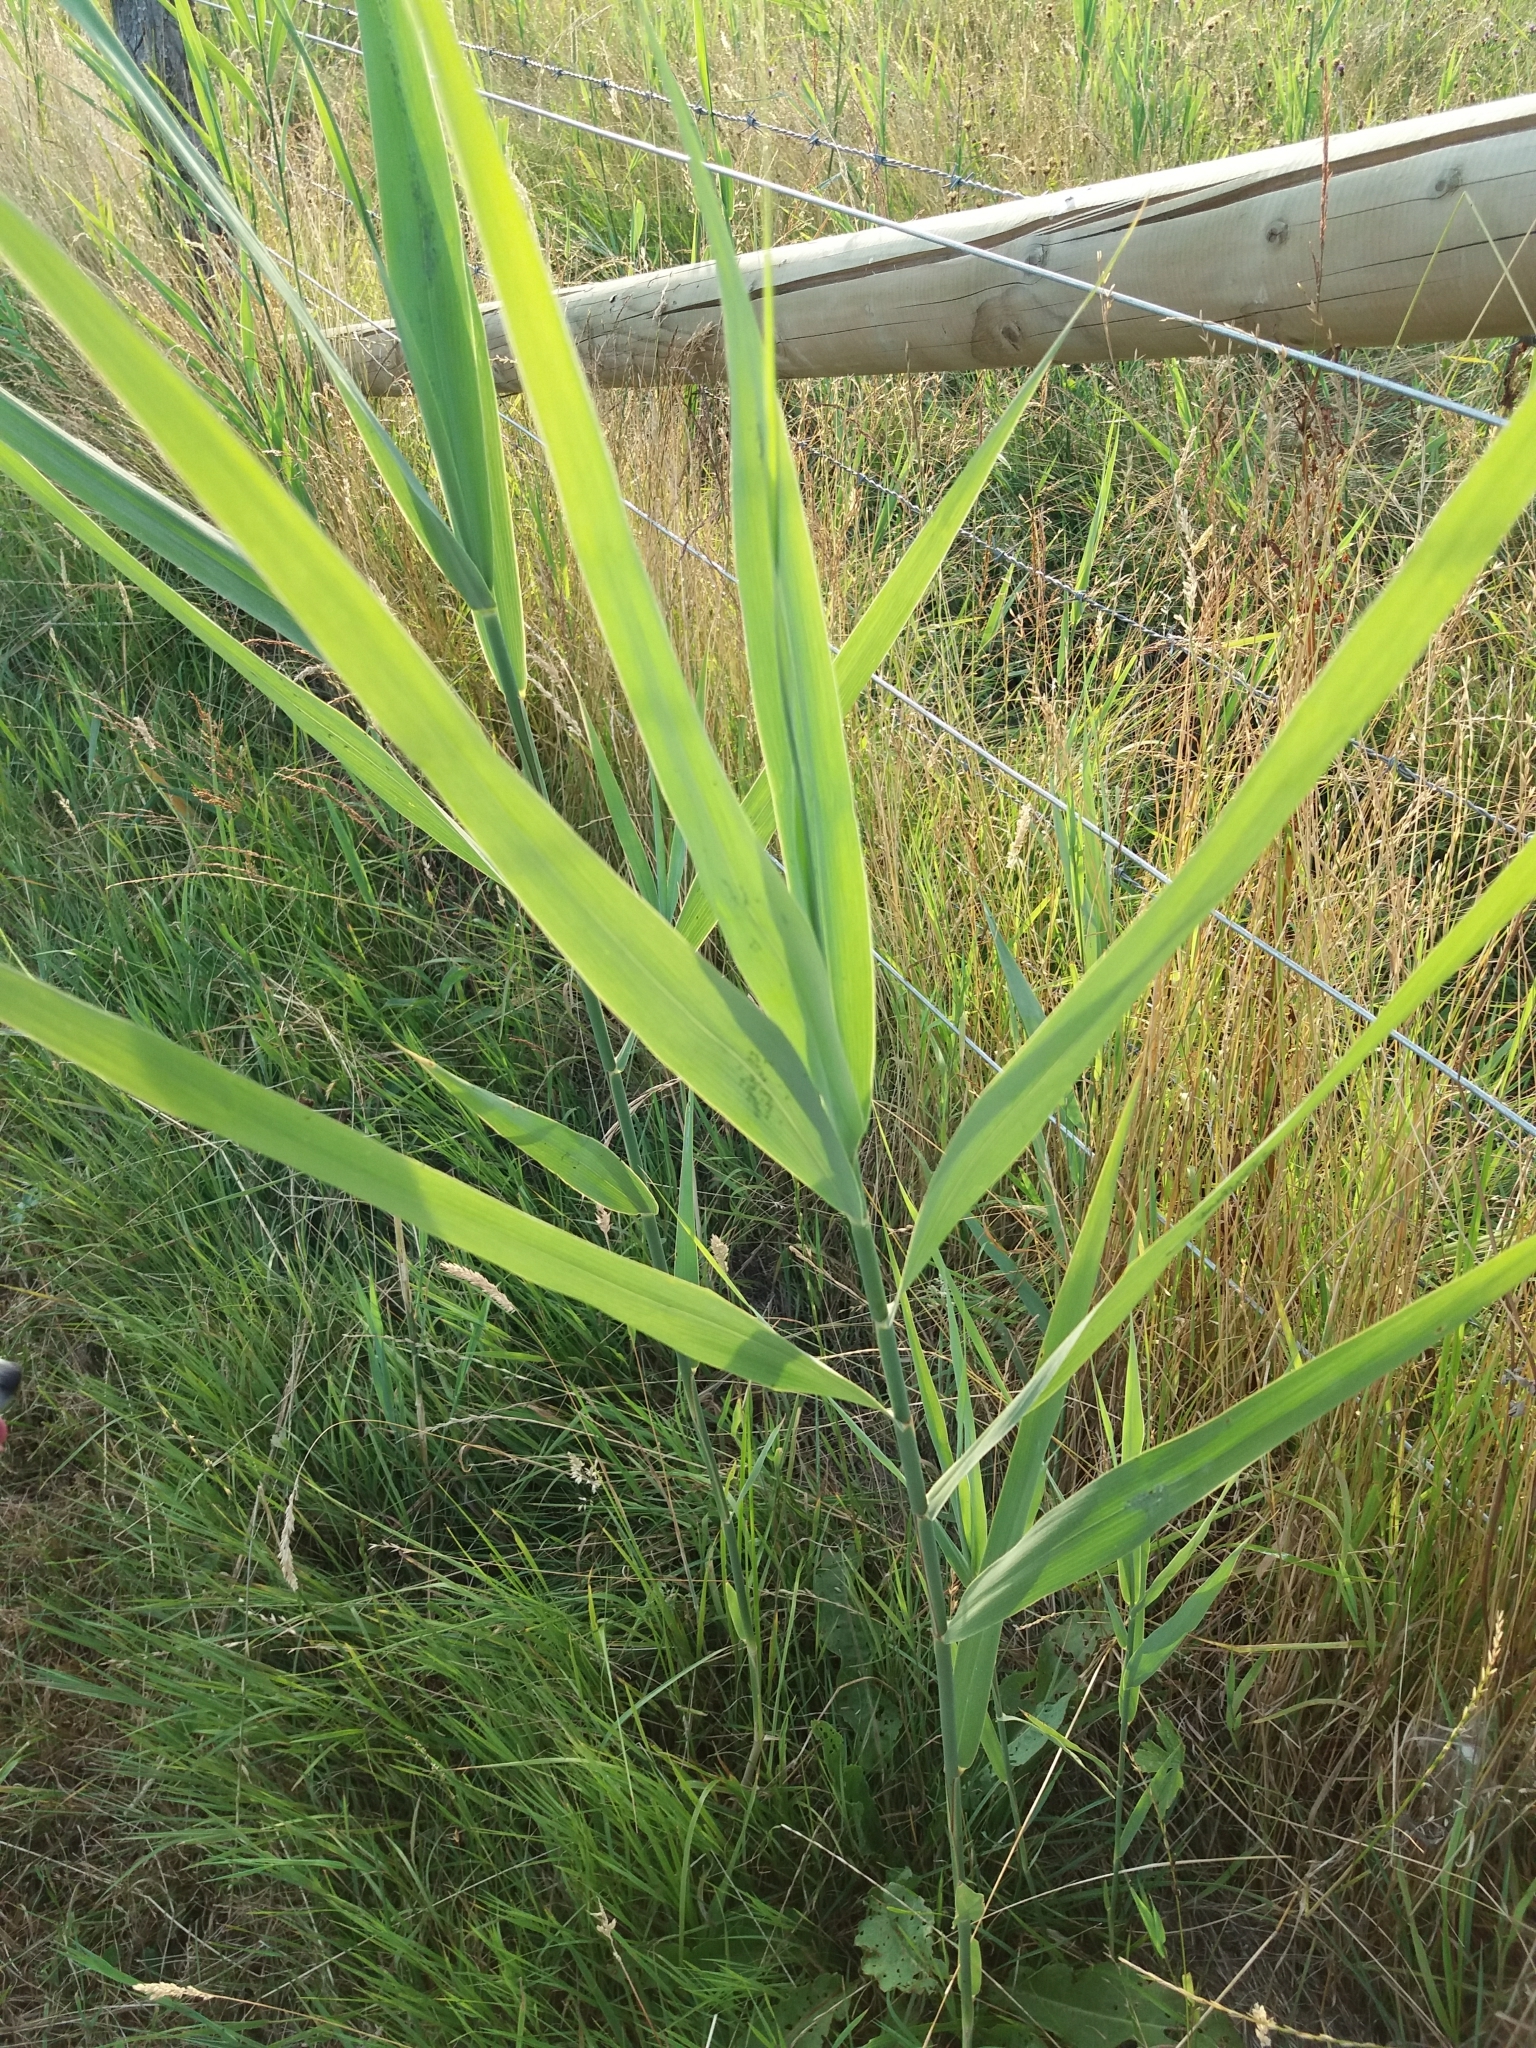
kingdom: Plantae
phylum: Tracheophyta
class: Liliopsida
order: Poales
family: Poaceae
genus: Phragmites
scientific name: Phragmites australis
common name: Common reed
